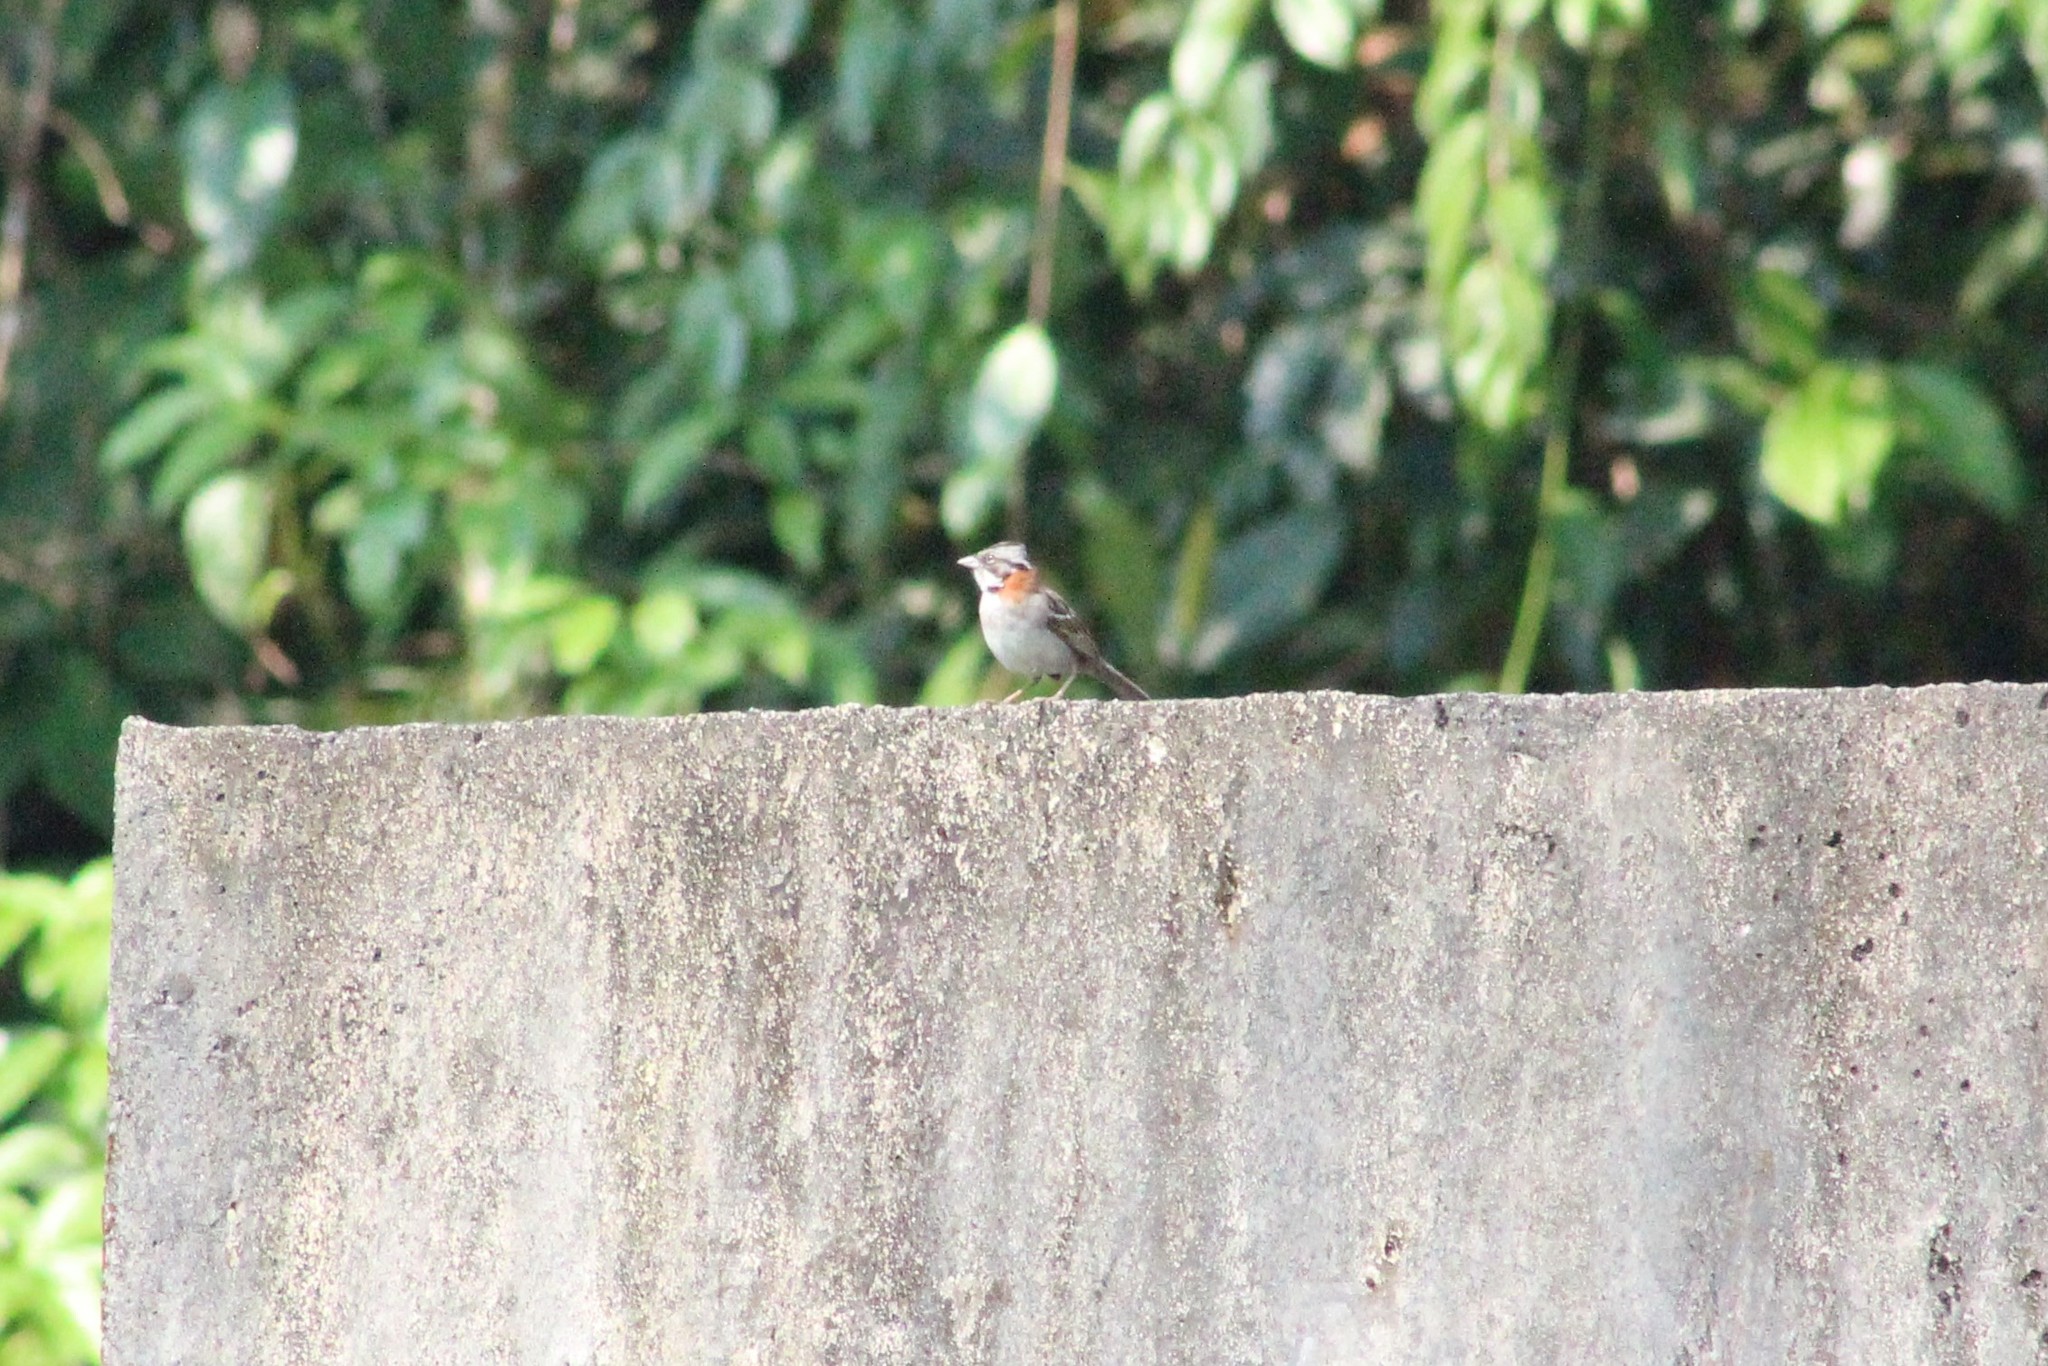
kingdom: Animalia
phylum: Chordata
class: Aves
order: Passeriformes
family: Passerellidae
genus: Zonotrichia
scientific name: Zonotrichia capensis
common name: Rufous-collared sparrow
